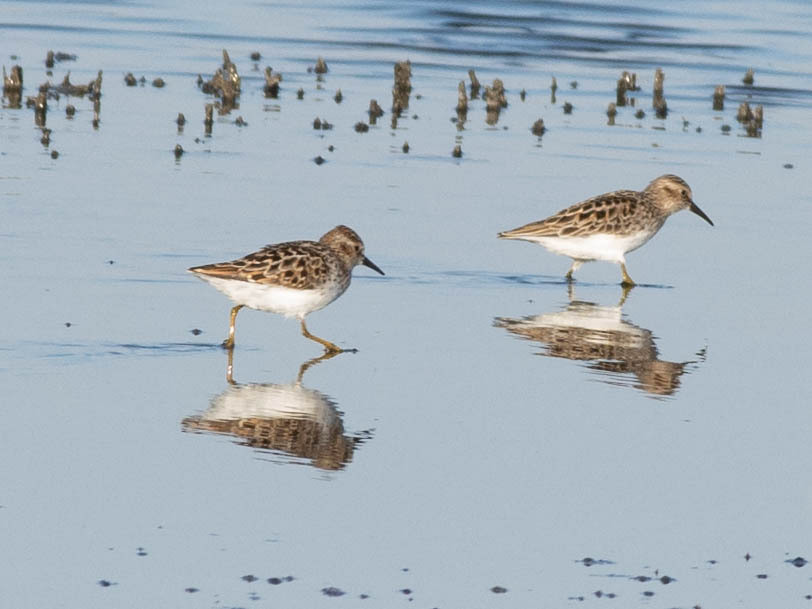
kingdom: Animalia
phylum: Chordata
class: Aves
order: Charadriiformes
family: Scolopacidae
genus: Calidris
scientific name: Calidris minutilla
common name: Least sandpiper
